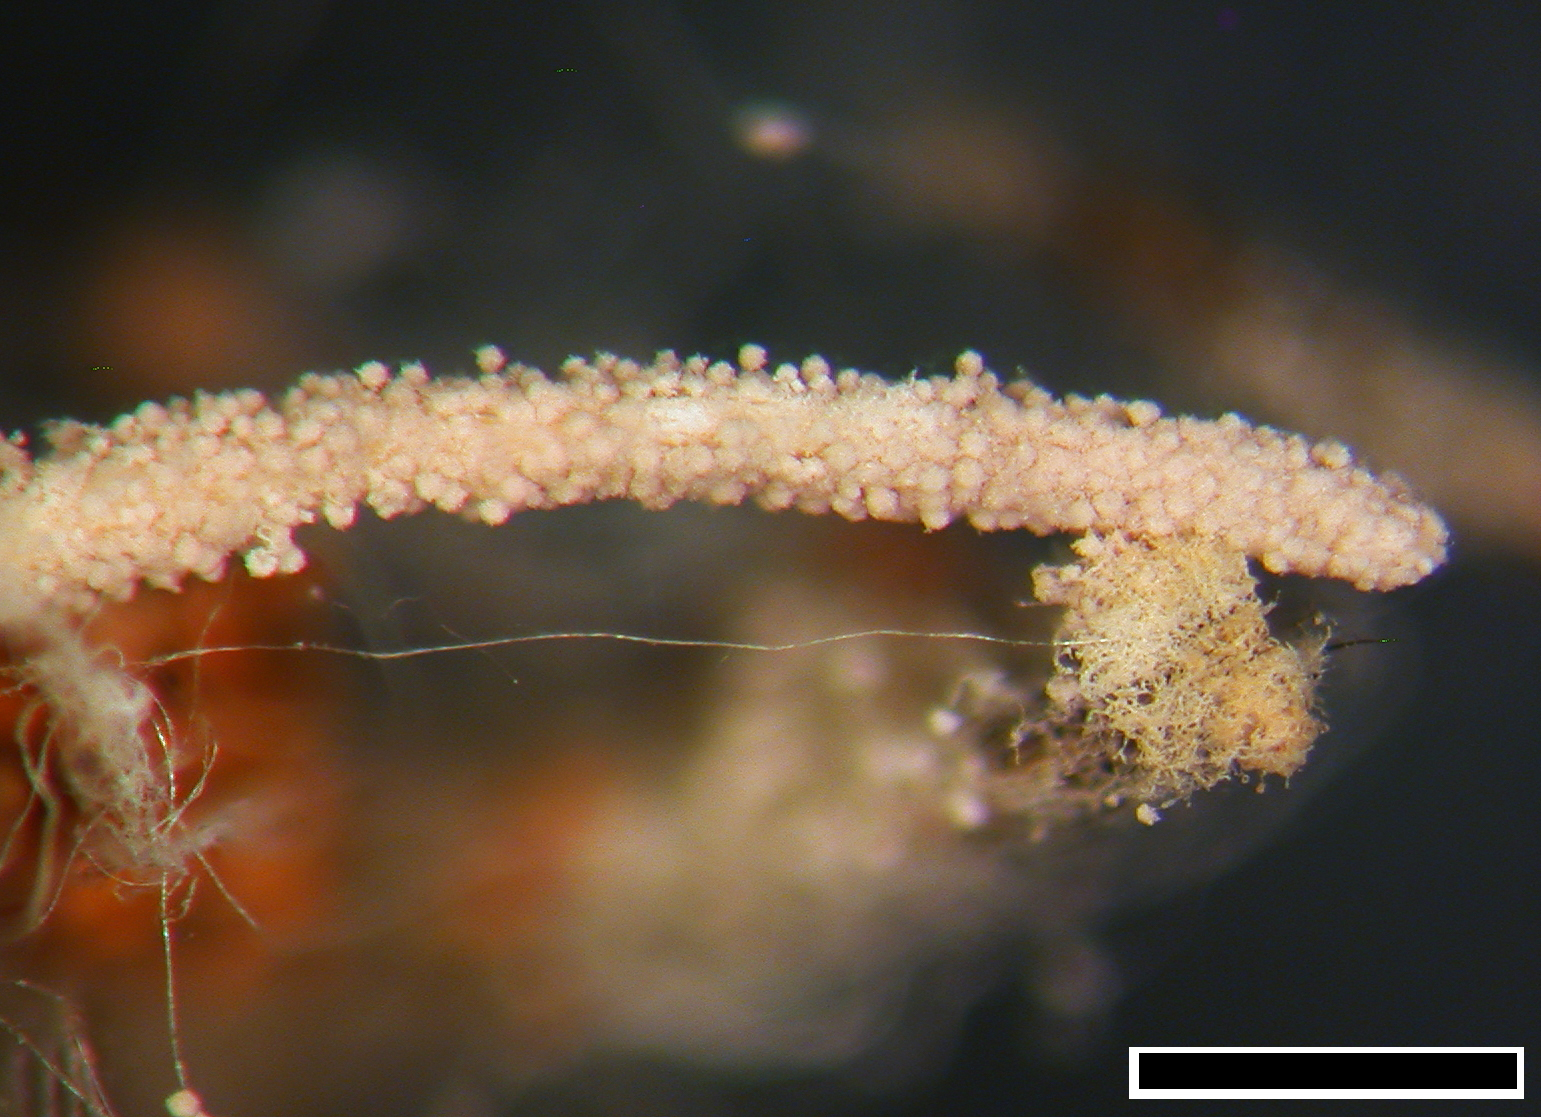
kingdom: Fungi
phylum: Ascomycota
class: Sordariomycetes
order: Hypocreales
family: Cordycipitaceae
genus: Gibellula
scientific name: Gibellula arachnophila
